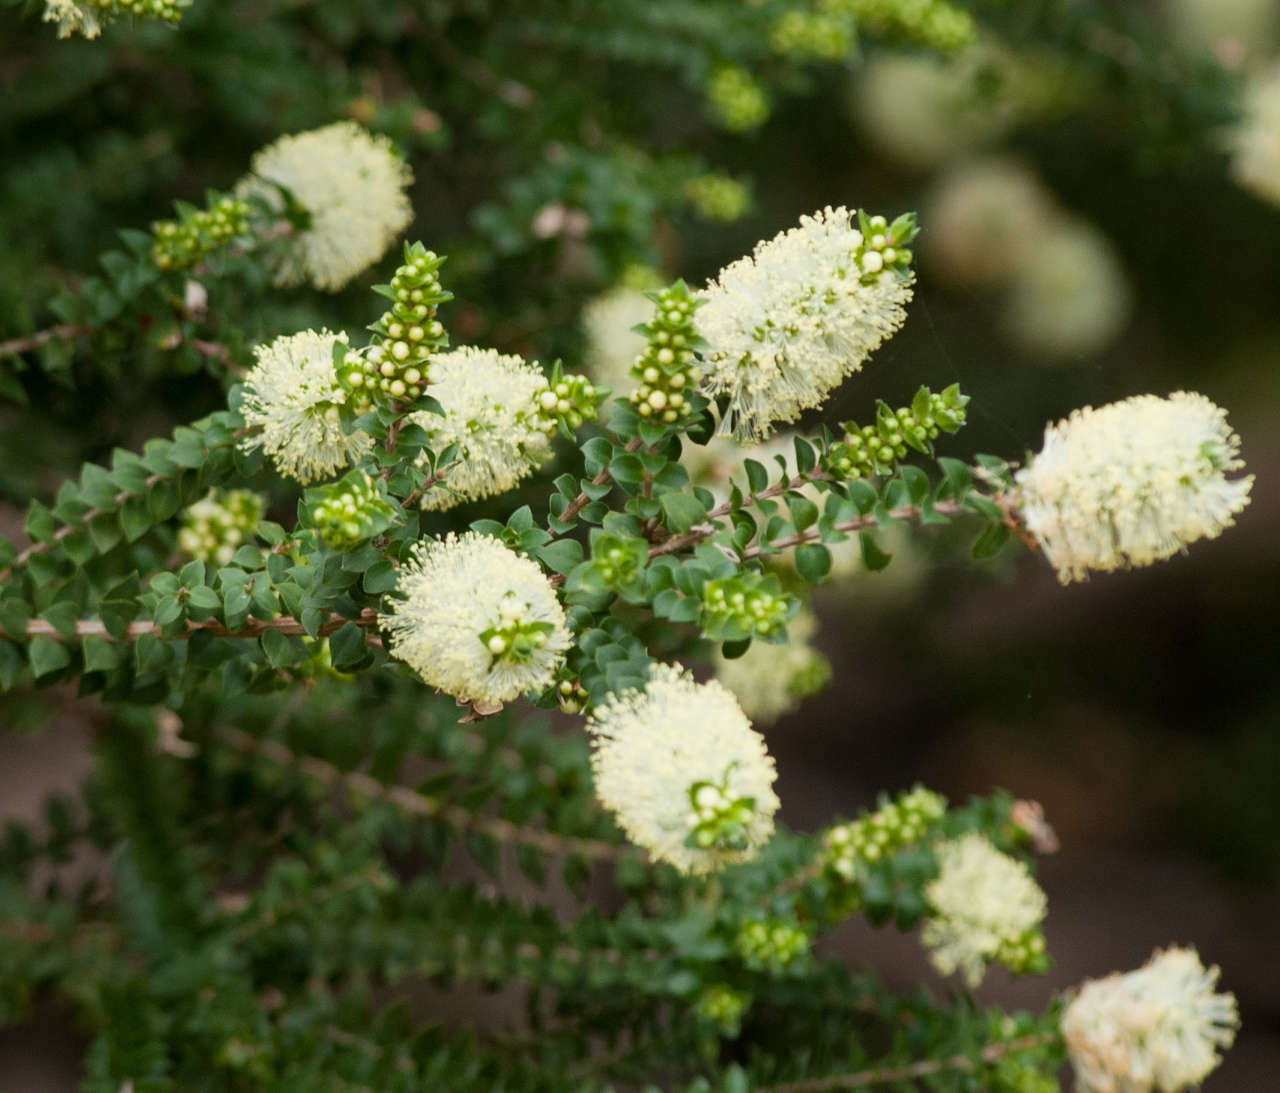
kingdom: Plantae
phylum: Tracheophyta
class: Magnoliopsida
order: Myrtales
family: Myrtaceae
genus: Melaleuca
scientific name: Melaleuca squarrosa
